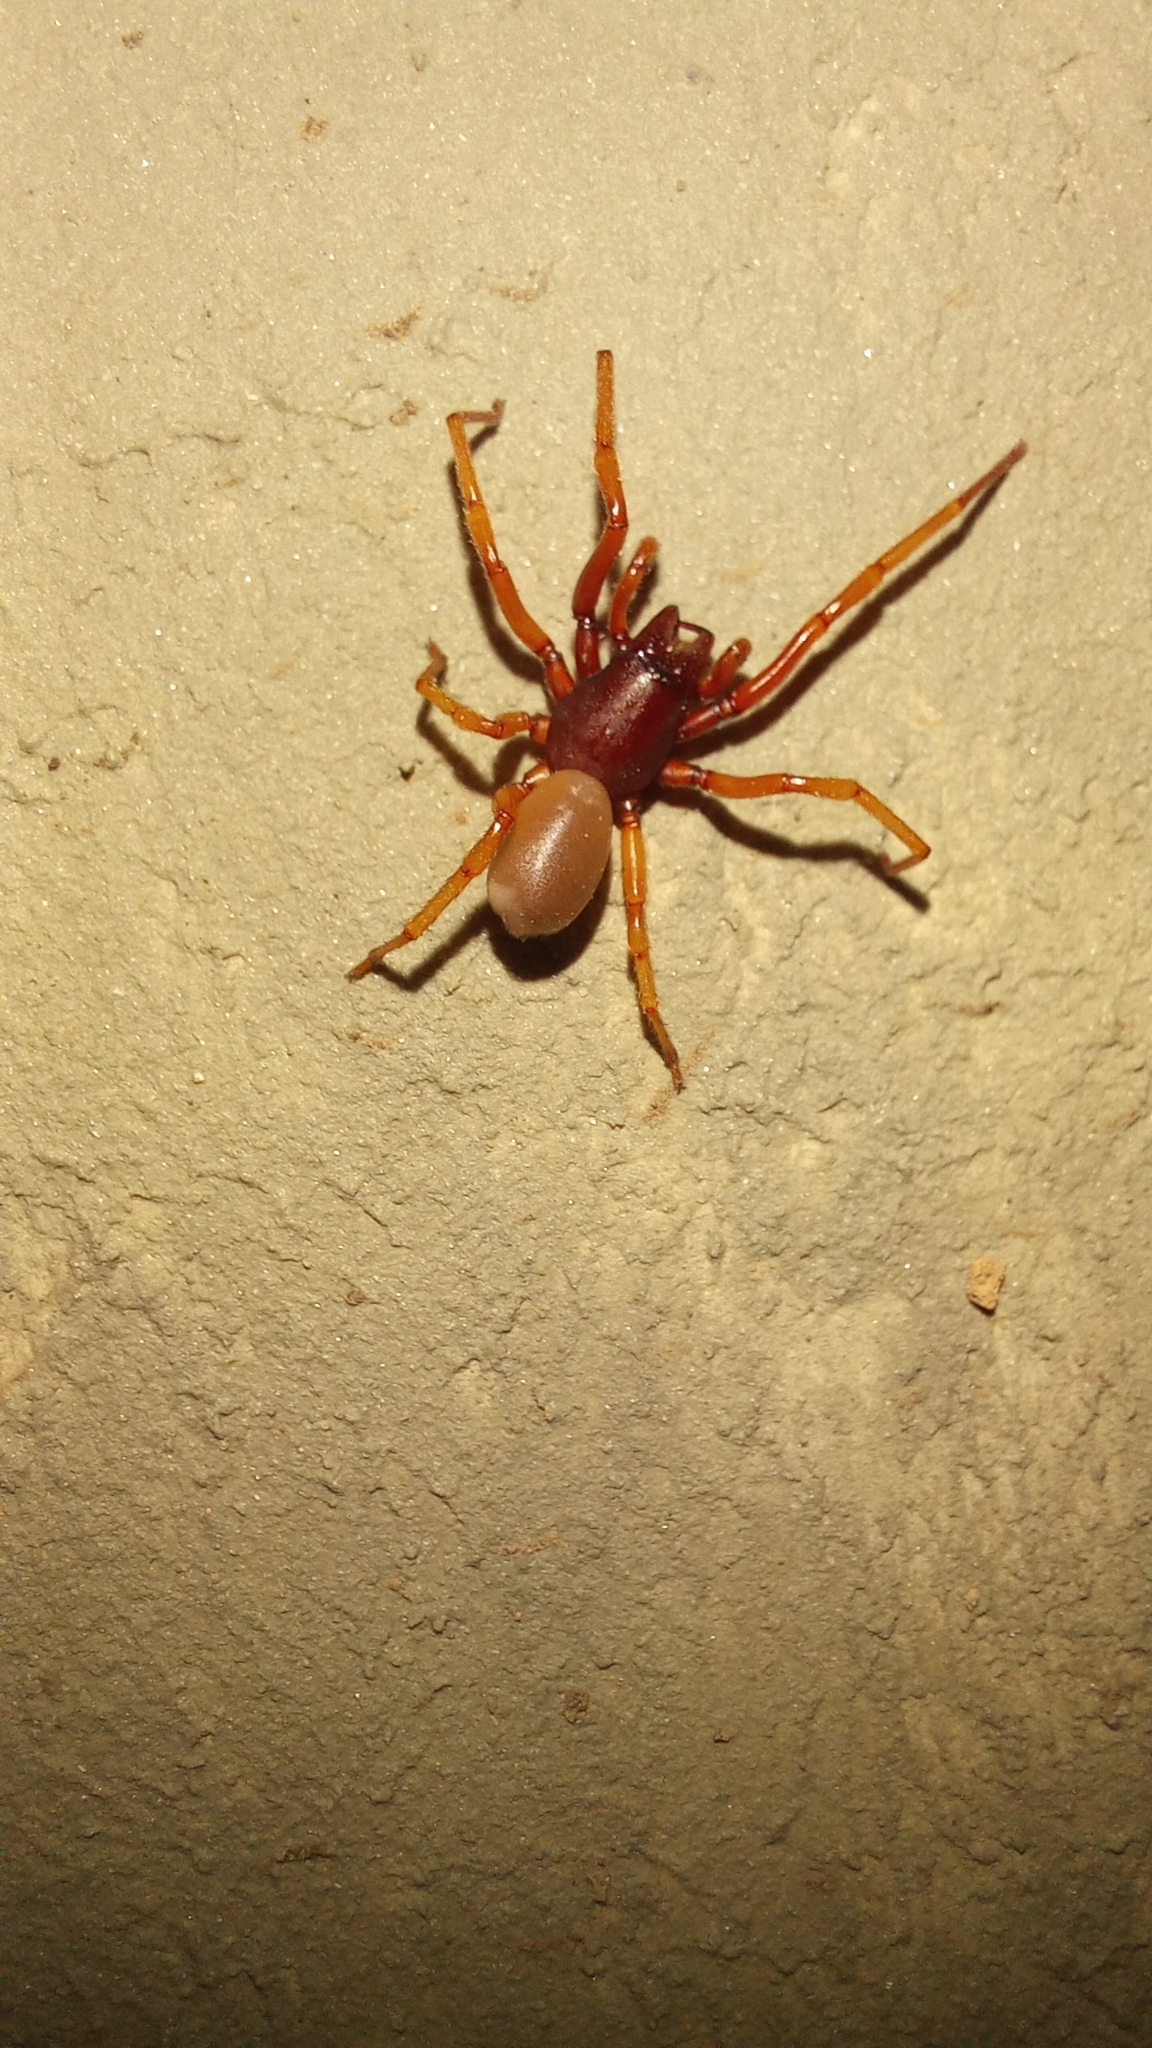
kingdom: Animalia
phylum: Arthropoda
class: Arachnida
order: Araneae
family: Dysderidae
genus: Dysdera
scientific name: Dysdera crocata
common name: Woodlouse spider
